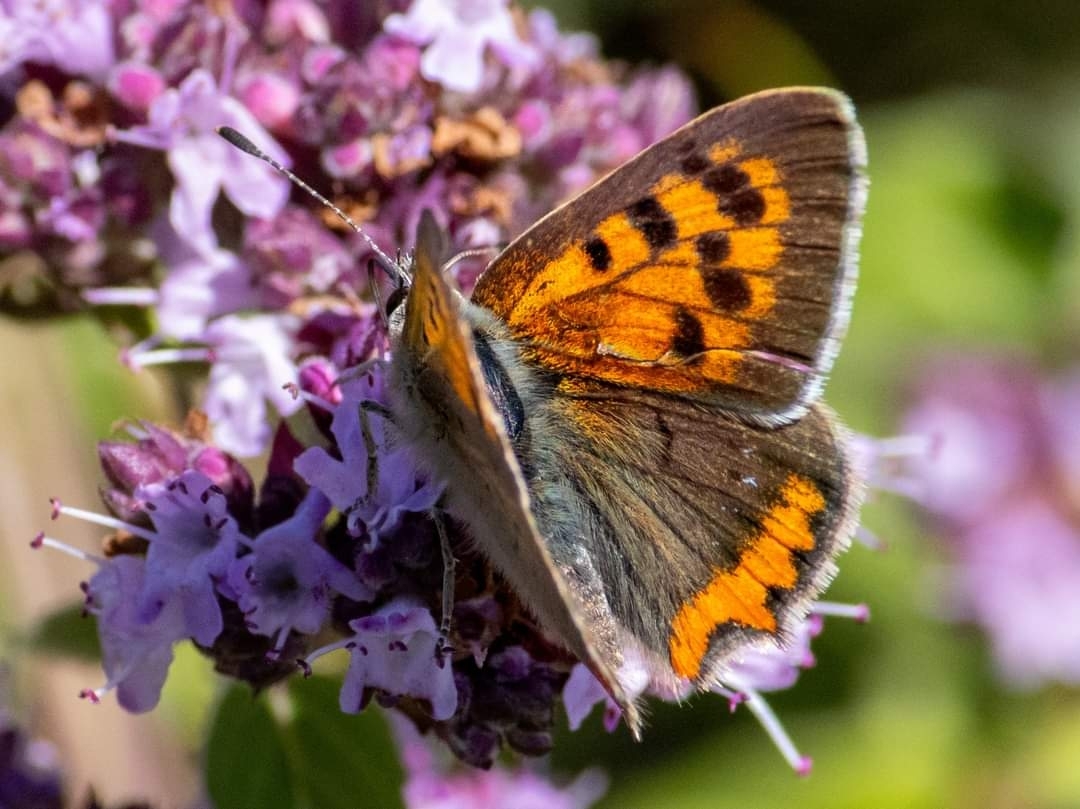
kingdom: Animalia
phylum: Arthropoda
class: Insecta
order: Lepidoptera
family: Lycaenidae
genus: Lycaena
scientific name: Lycaena phlaeas
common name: Small copper
